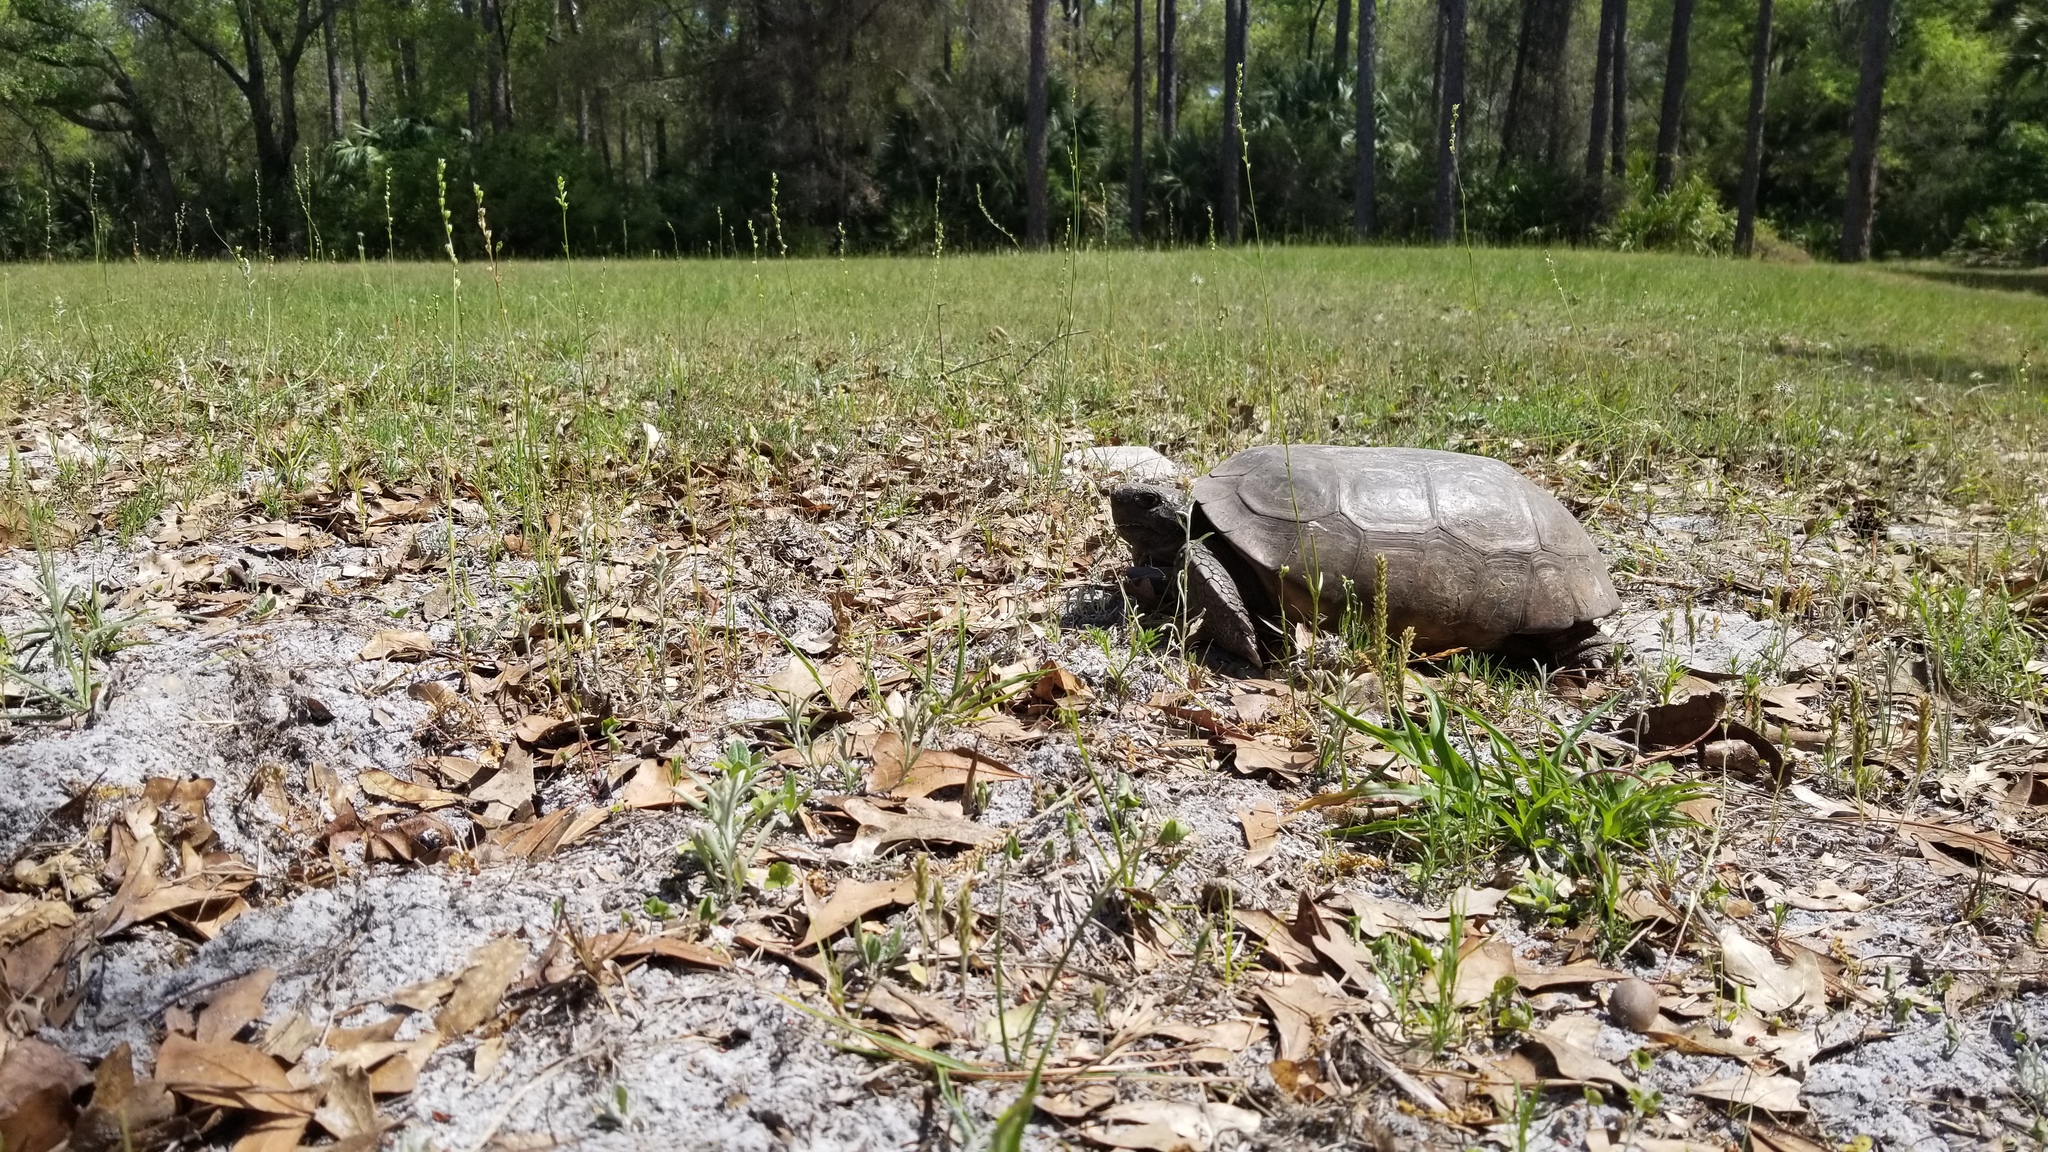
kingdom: Animalia
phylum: Chordata
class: Testudines
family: Testudinidae
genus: Gopherus
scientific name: Gopherus polyphemus
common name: Florida gopher tortoise
